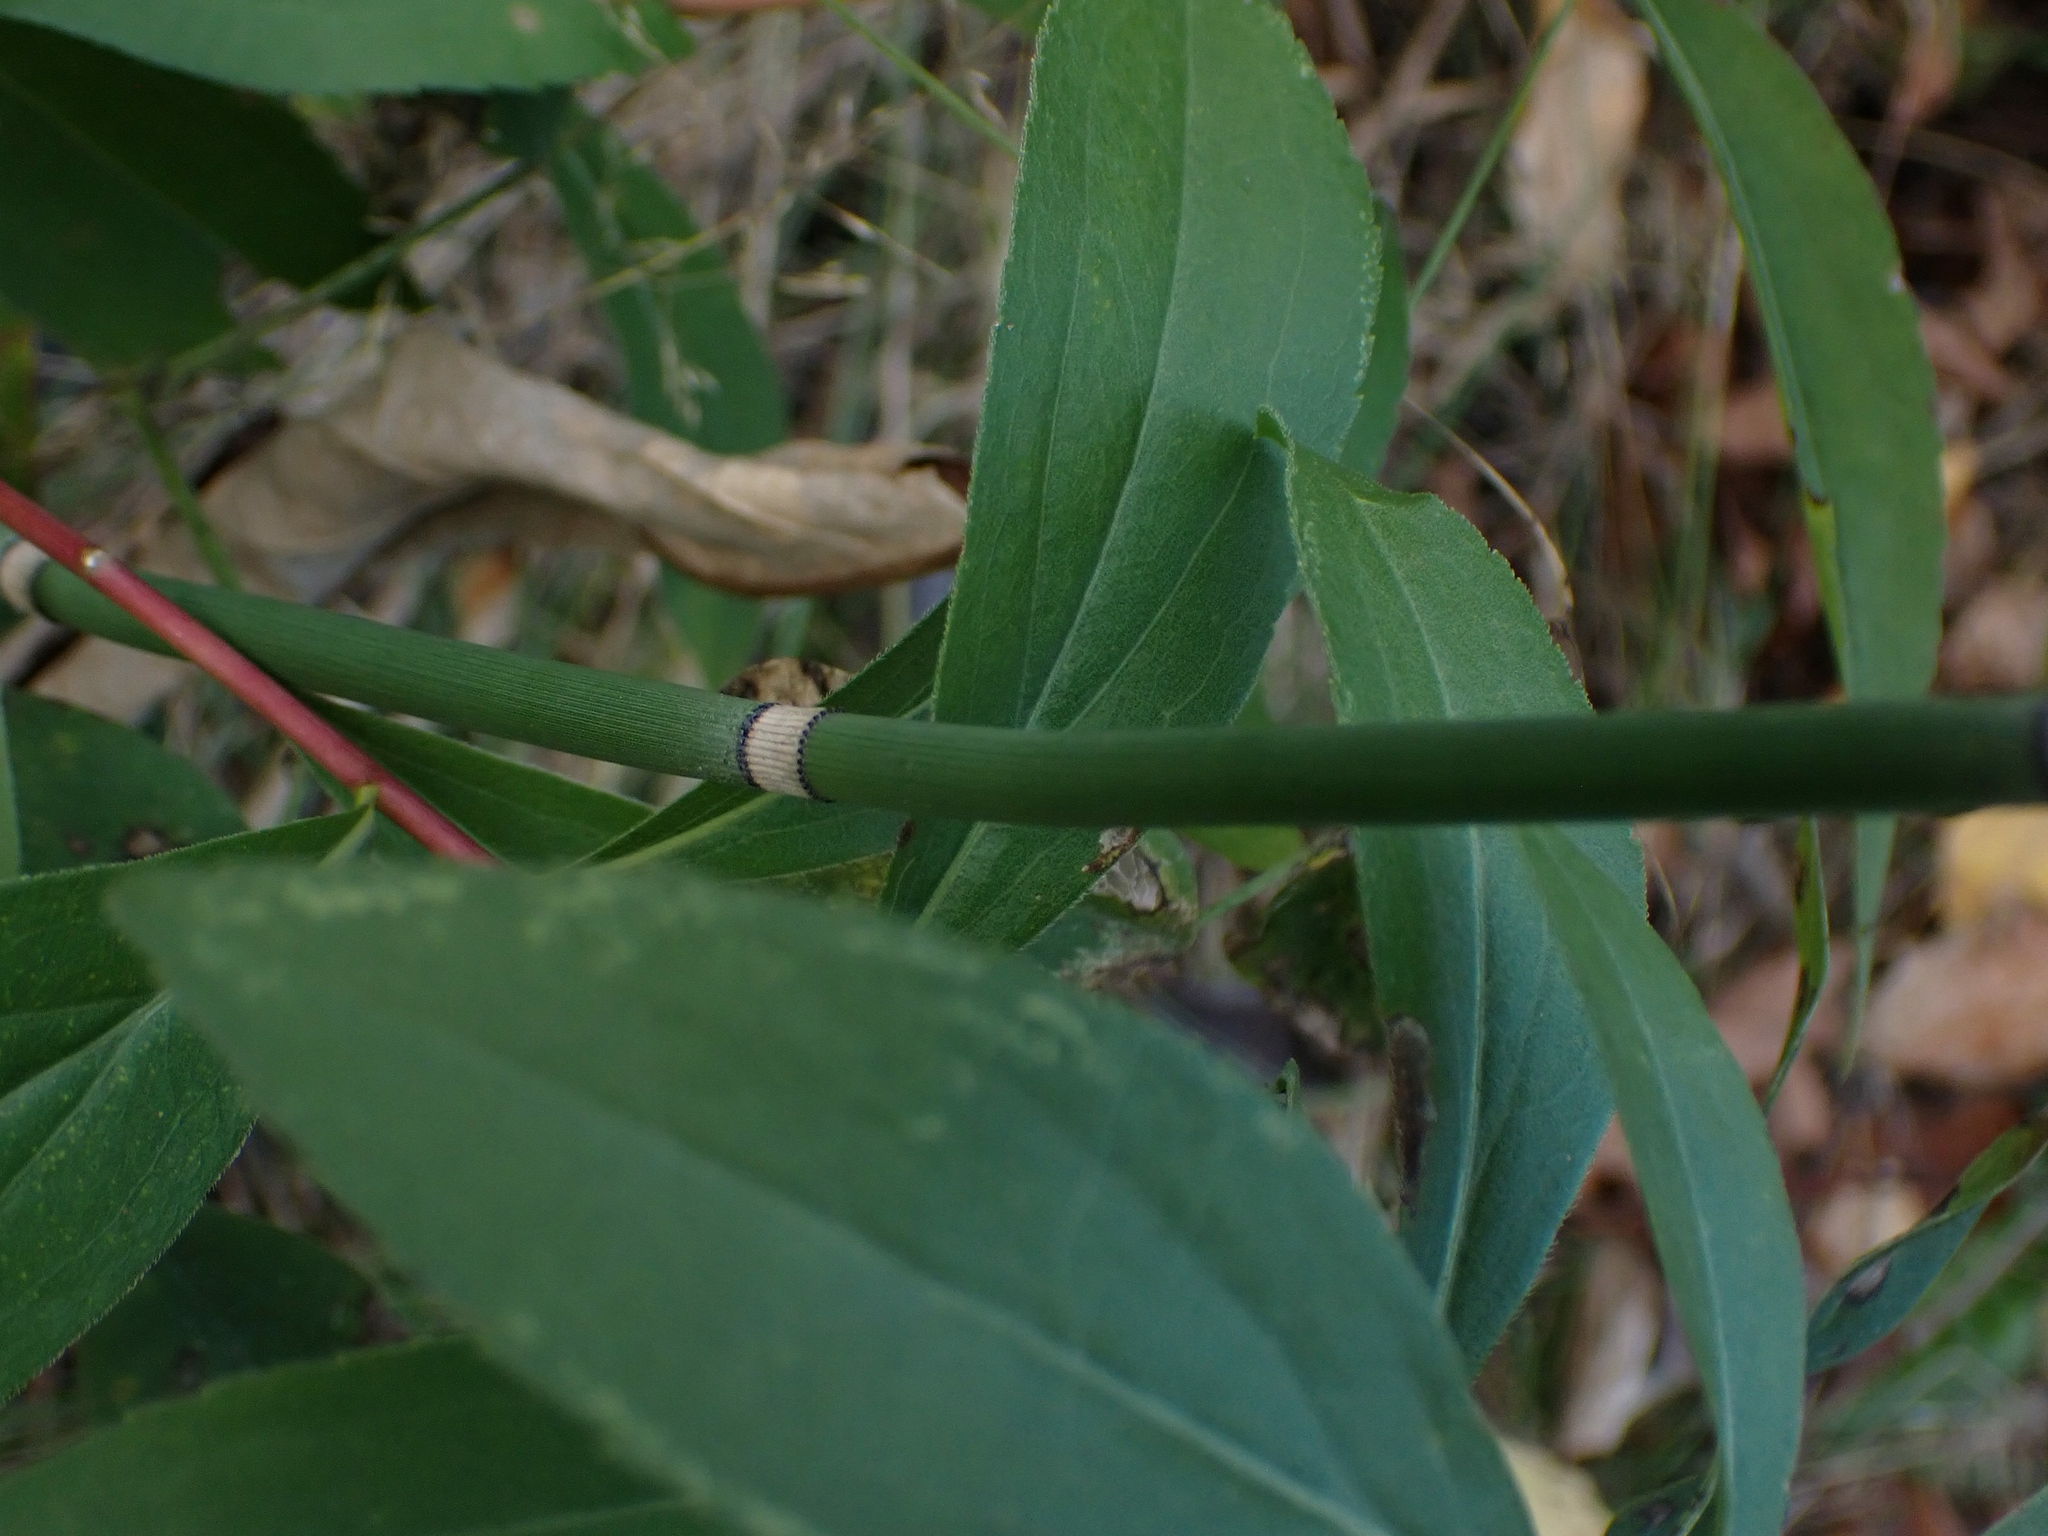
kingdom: Plantae
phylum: Tracheophyta
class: Polypodiopsida
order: Equisetales
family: Equisetaceae
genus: Equisetum
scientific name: Equisetum hyemale
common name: Rough horsetail
